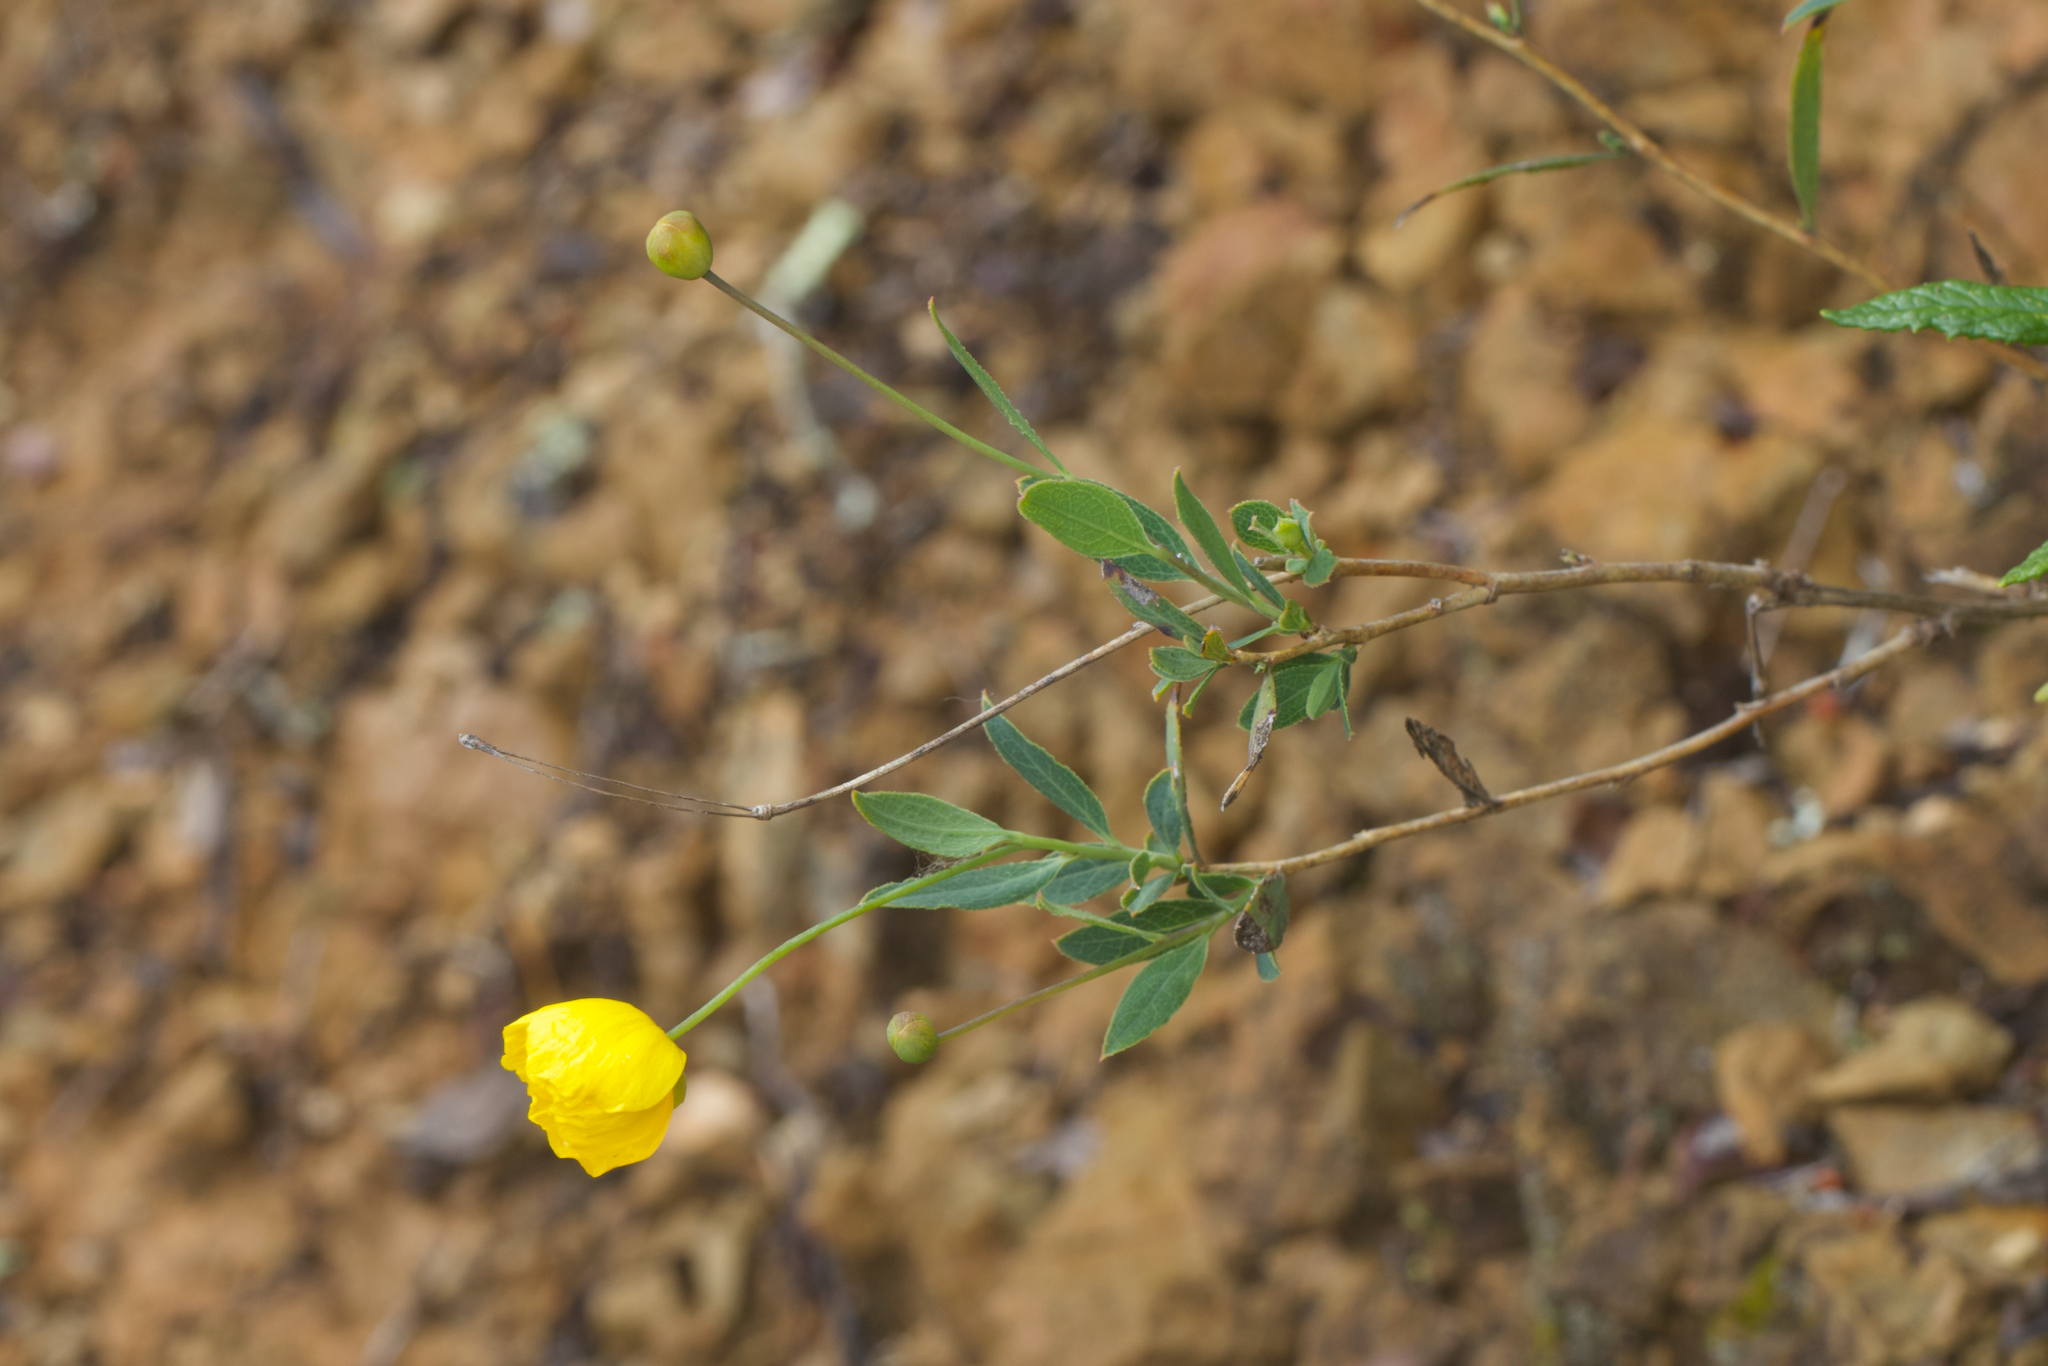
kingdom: Plantae
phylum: Tracheophyta
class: Magnoliopsida
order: Ranunculales
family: Papaveraceae
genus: Dendromecon
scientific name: Dendromecon rigida
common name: Tree poppy
